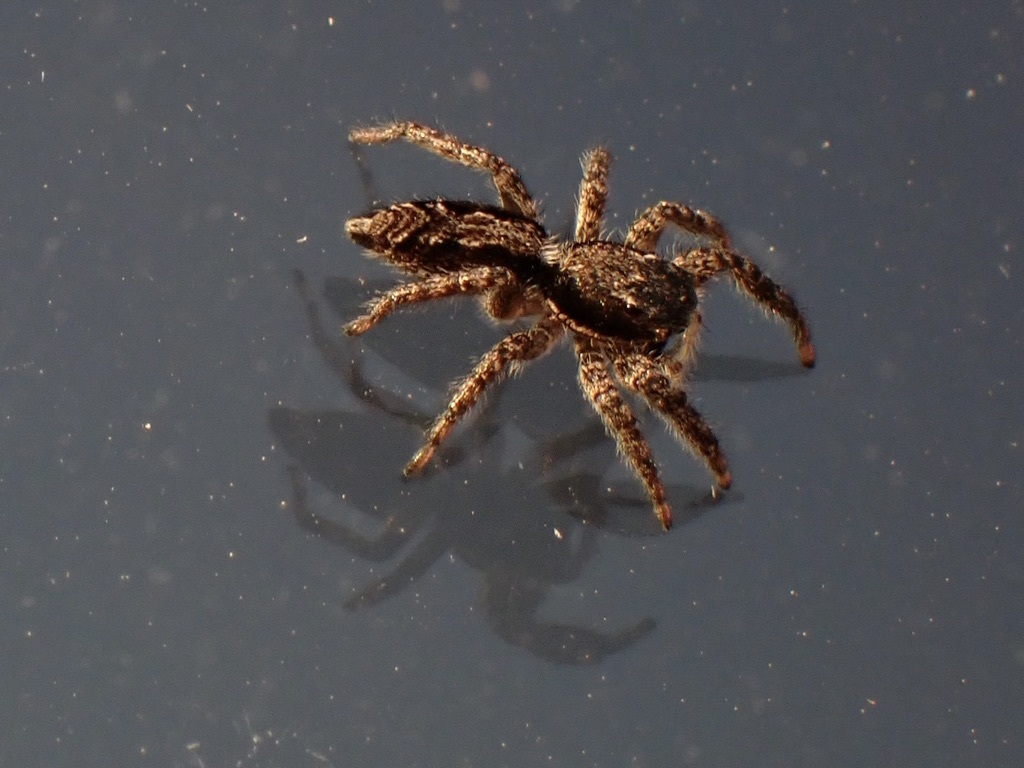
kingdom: Animalia
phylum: Arthropoda
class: Arachnida
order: Araneae
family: Salticidae
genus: Platycryptus
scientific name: Platycryptus californicus
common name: Jumping spiders
